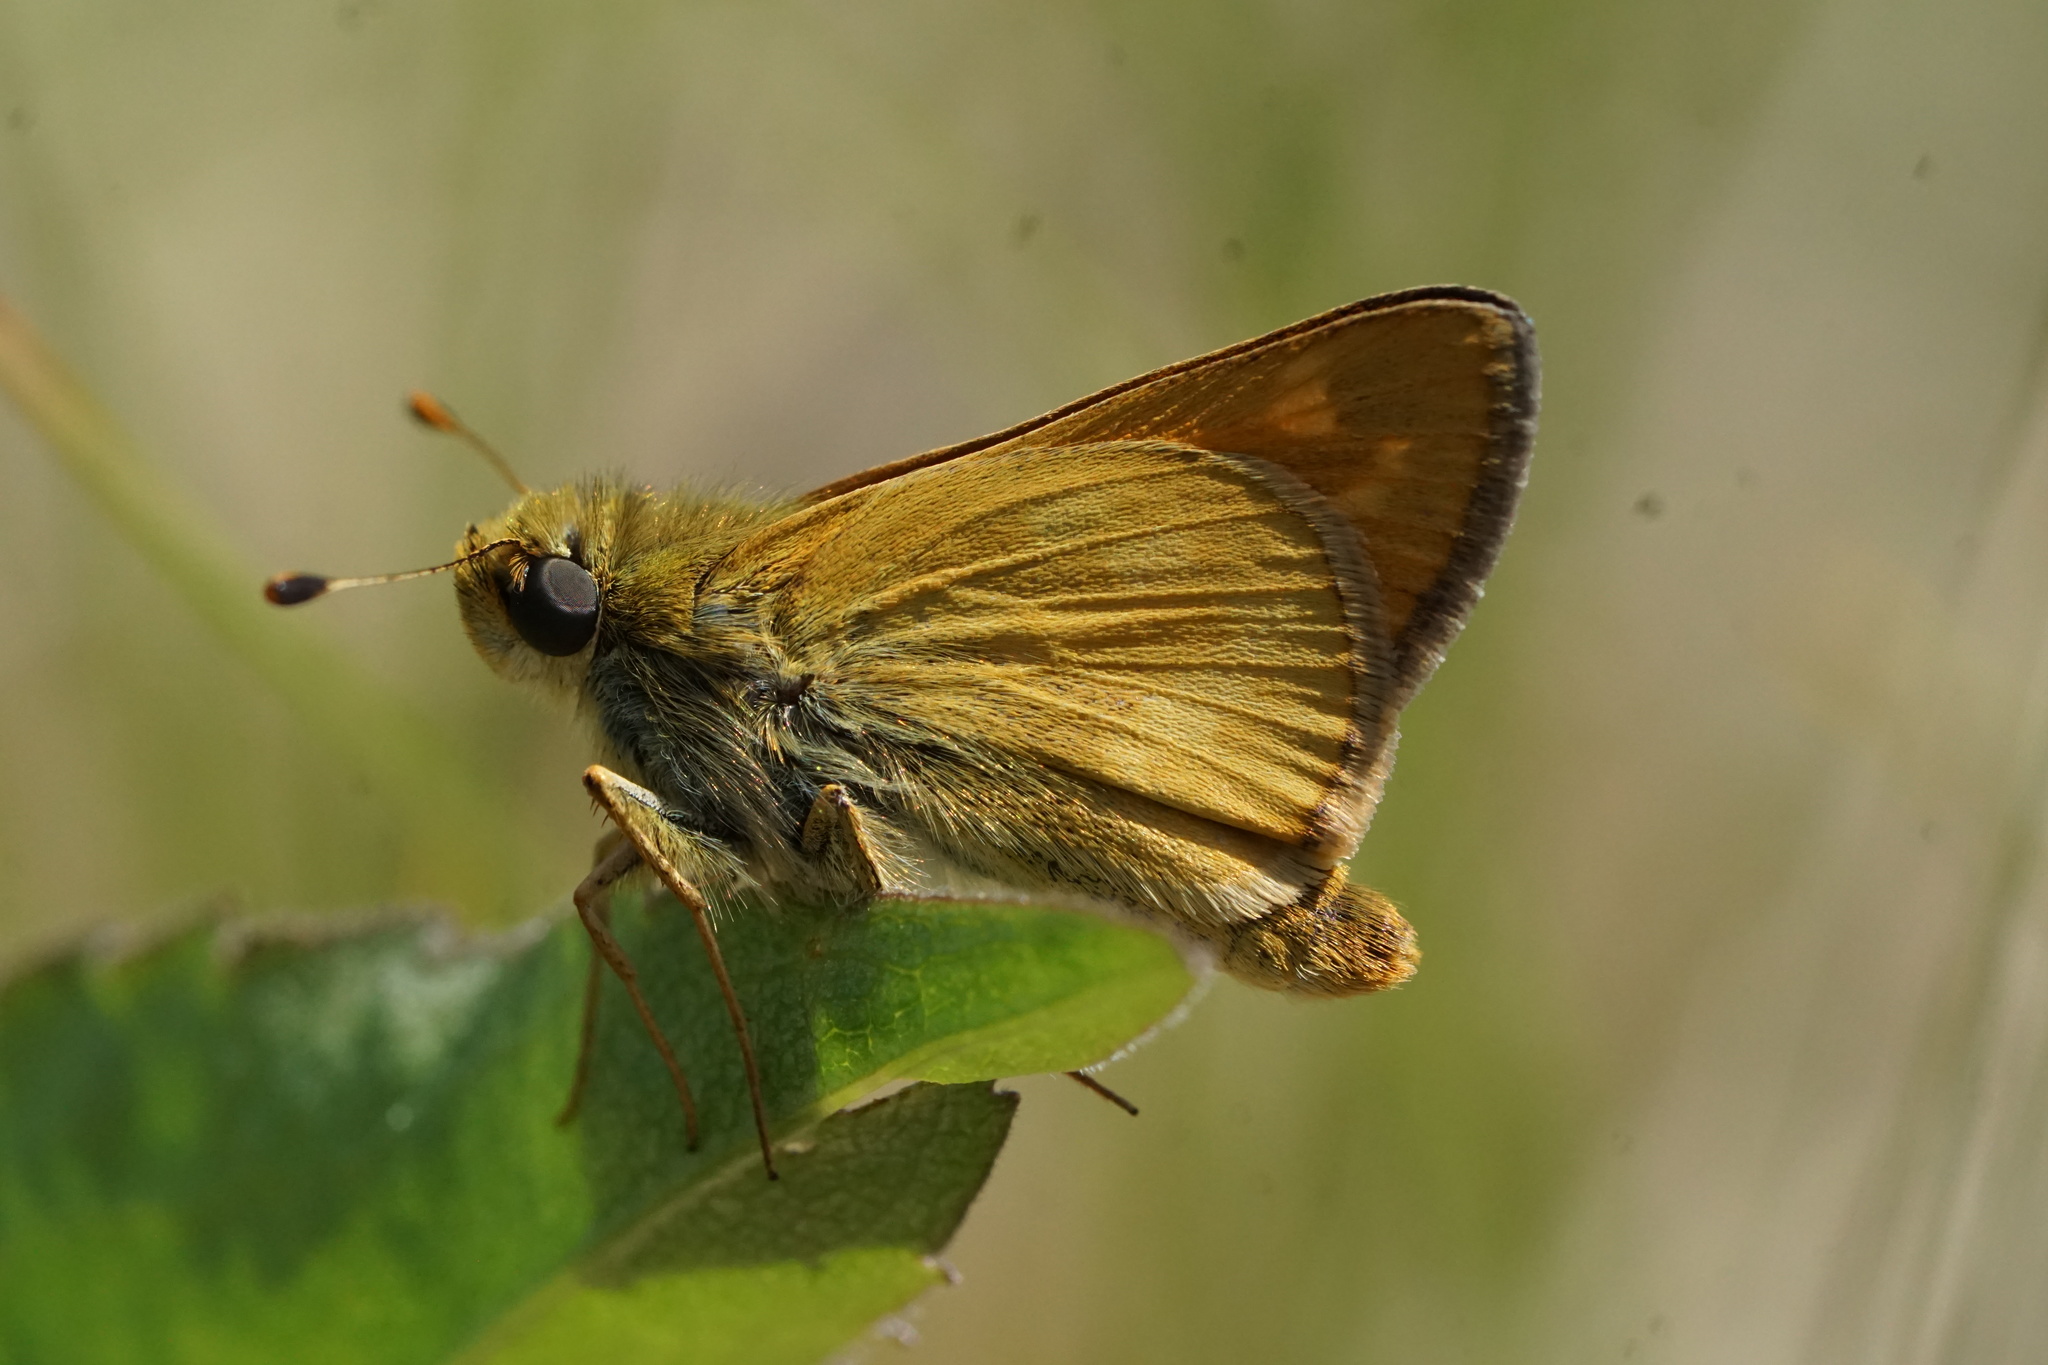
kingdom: Animalia
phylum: Arthropoda
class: Insecta
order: Lepidoptera
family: Hesperiidae
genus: Hesperia
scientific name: Hesperia sassacus
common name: Indian skipper
